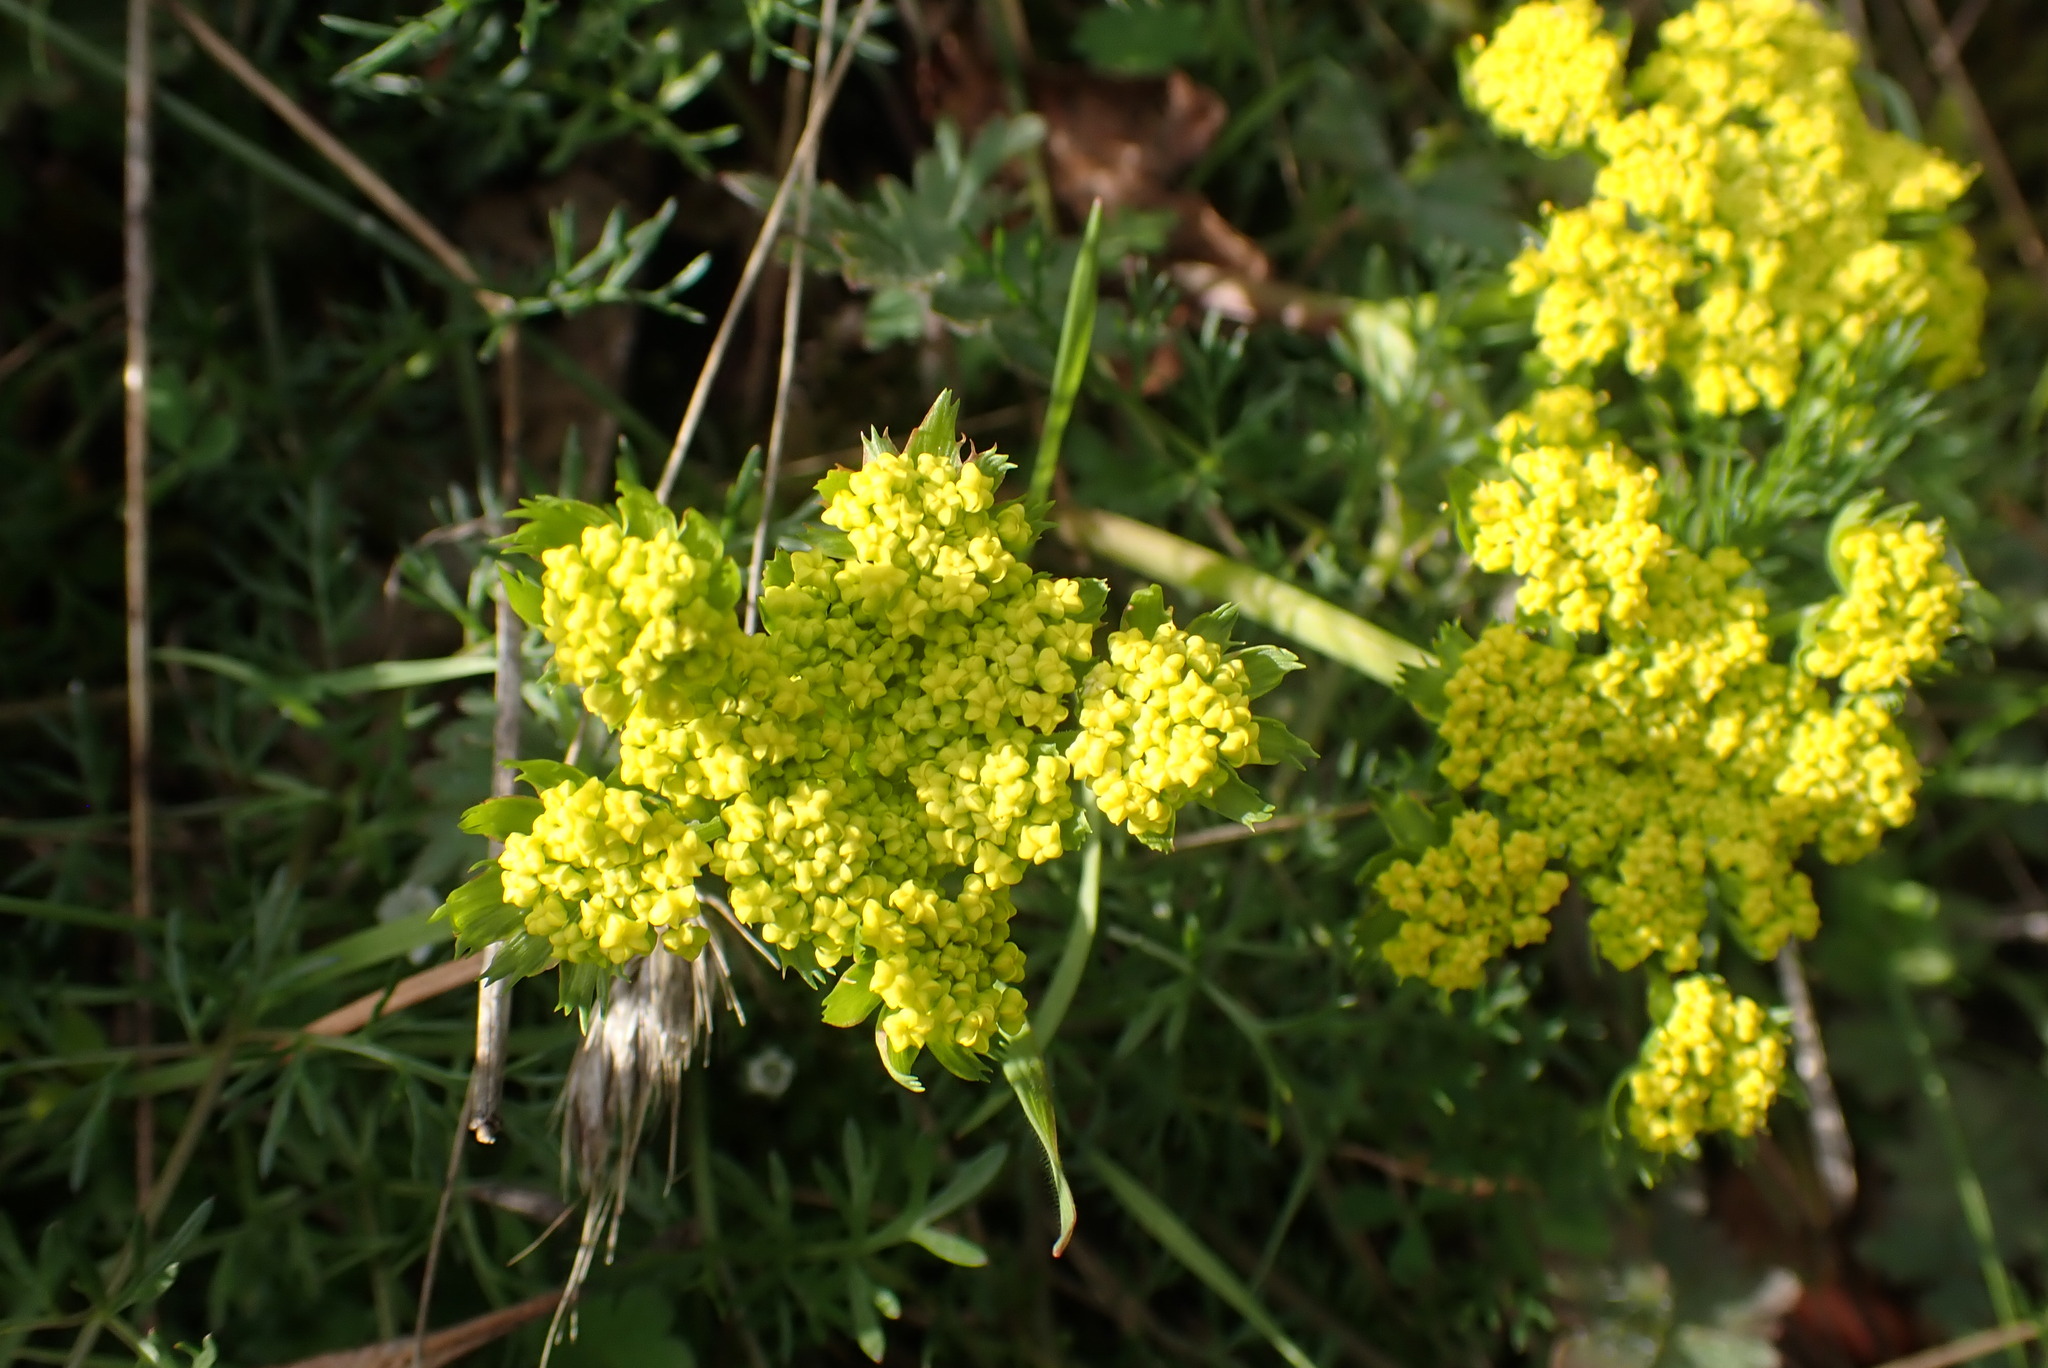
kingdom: Plantae
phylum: Tracheophyta
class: Magnoliopsida
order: Apiales
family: Apiaceae
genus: Lomatium
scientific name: Lomatium utriculatum
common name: Fine-leaf desert-parsley
